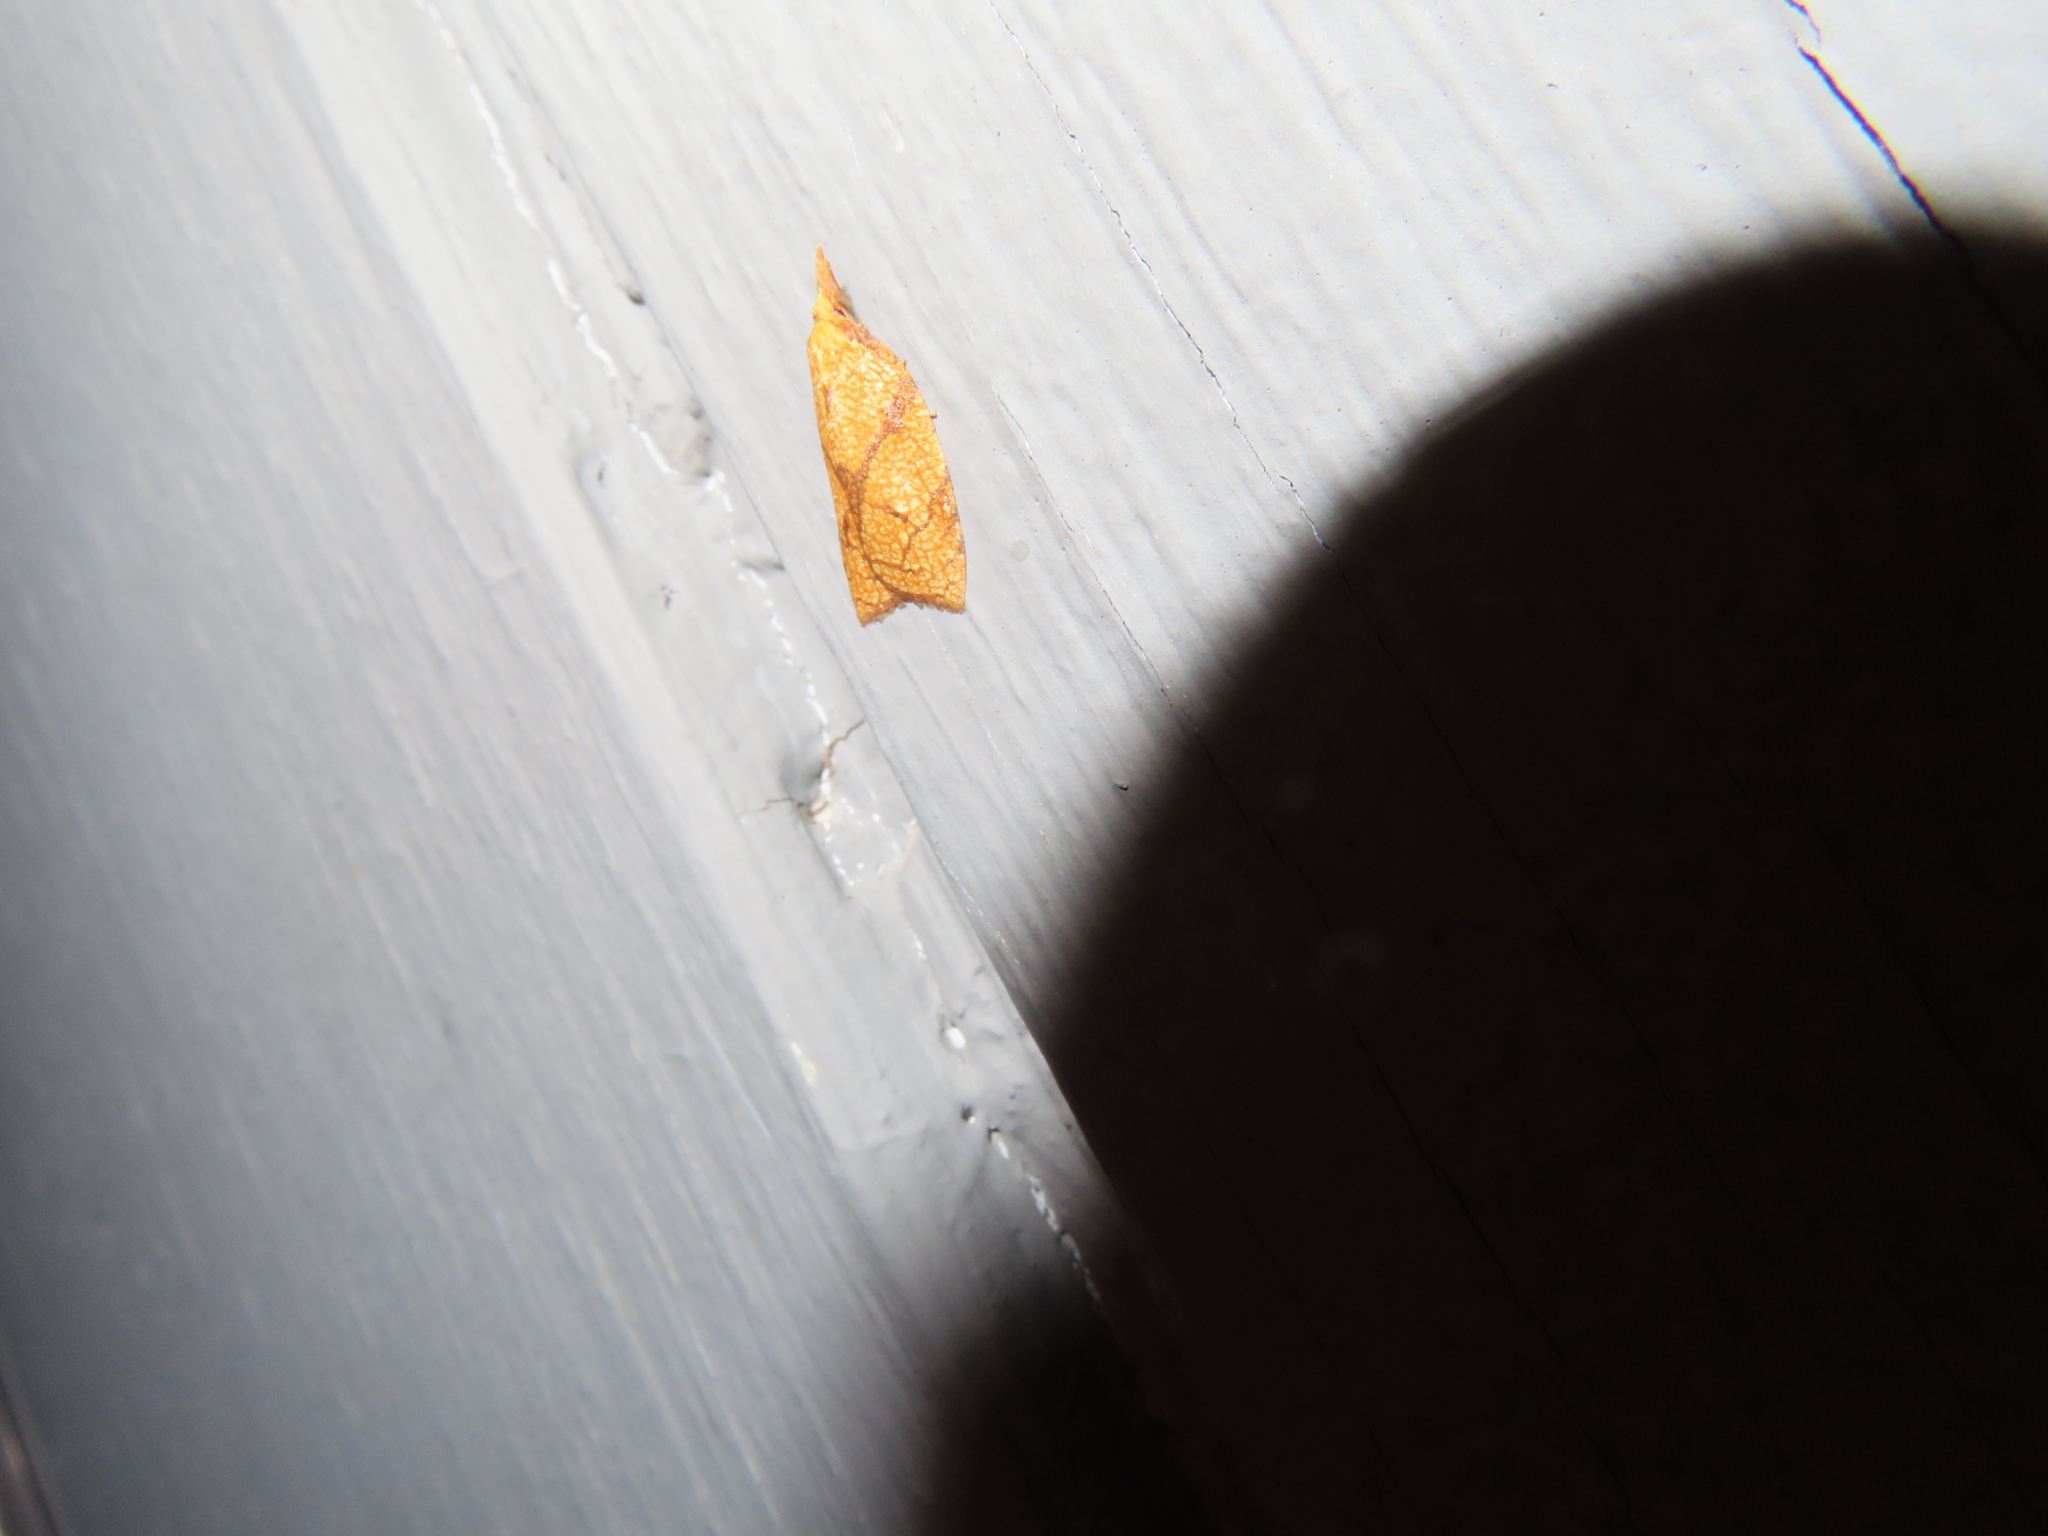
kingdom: Animalia
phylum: Arthropoda
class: Insecta
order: Lepidoptera
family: Tortricidae
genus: Cenopis
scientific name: Cenopis reticulatana
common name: Reticulated fruitworm moth
